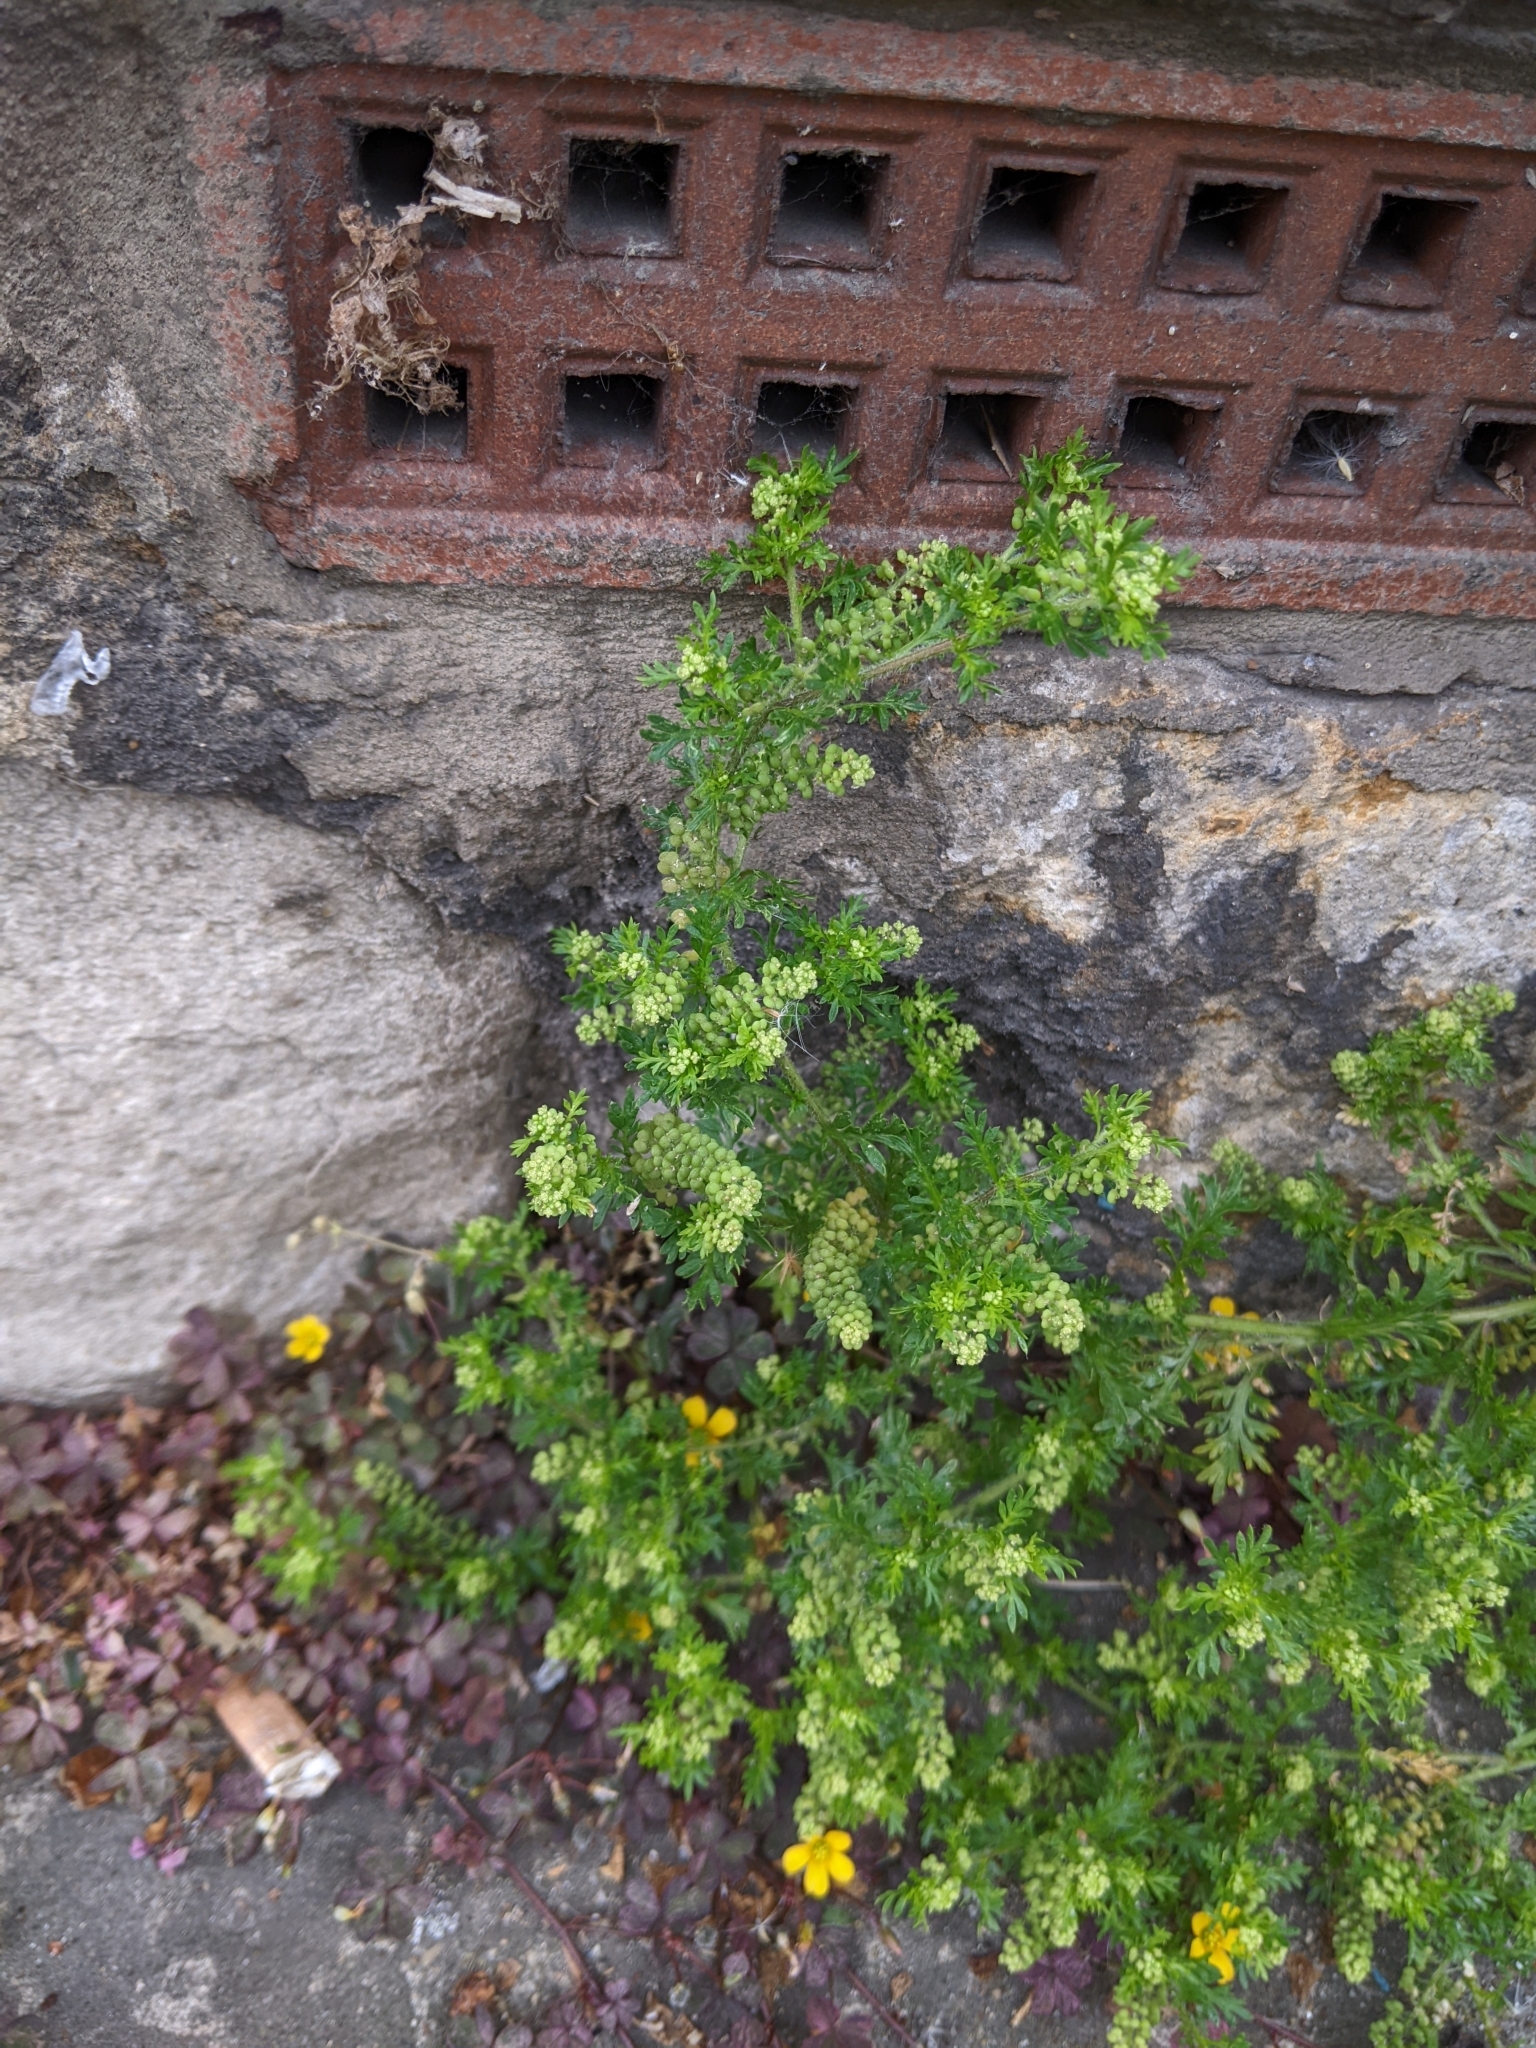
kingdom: Plantae
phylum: Tracheophyta
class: Magnoliopsida
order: Brassicales
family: Brassicaceae
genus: Lepidium
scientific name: Lepidium didymum
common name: Lesser swinecress
